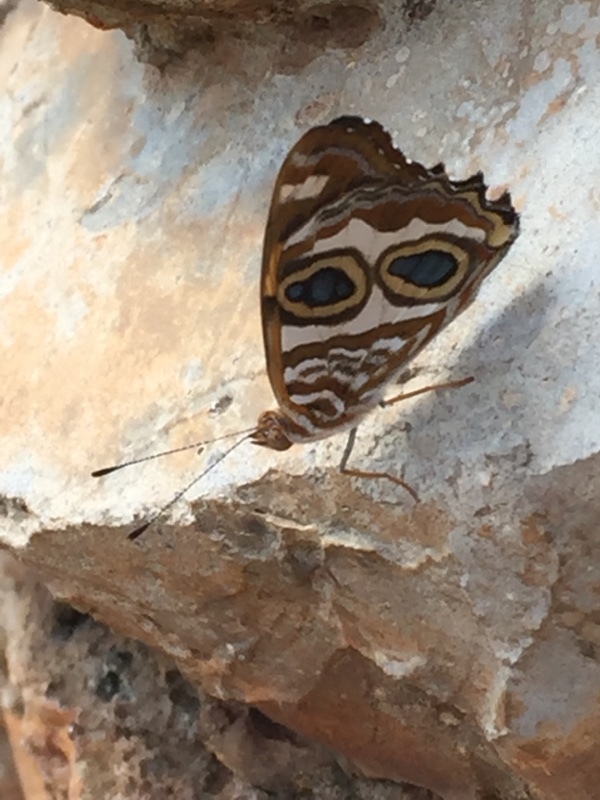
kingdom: Animalia
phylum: Arthropoda
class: Insecta
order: Lepidoptera
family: Nymphalidae
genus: Lucinia
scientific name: Lucinia sida
